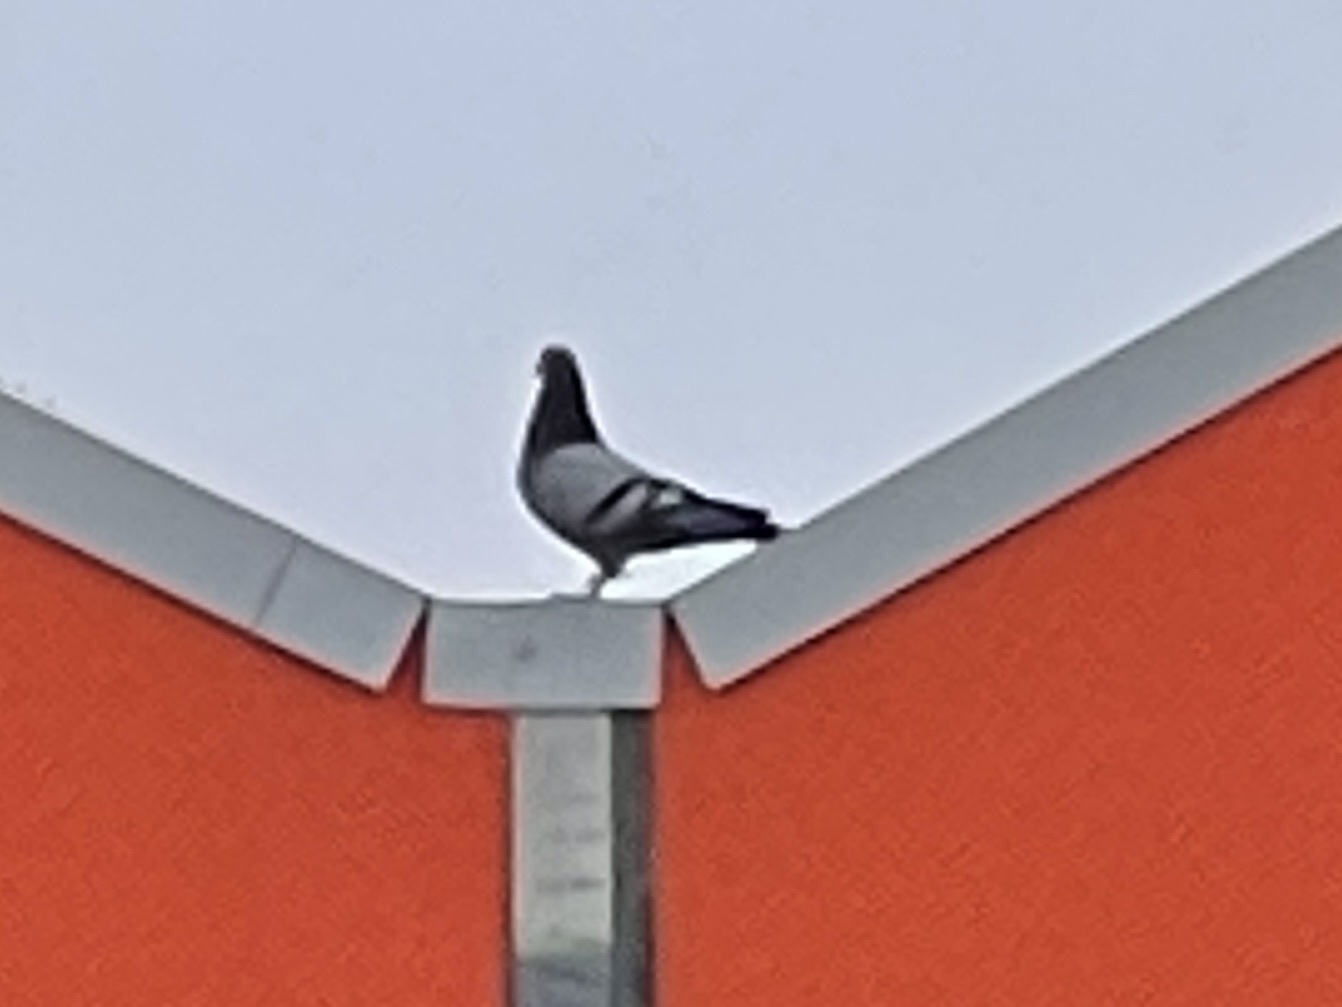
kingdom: Animalia
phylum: Chordata
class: Aves
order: Columbiformes
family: Columbidae
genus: Columba
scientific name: Columba livia
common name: Rock pigeon
